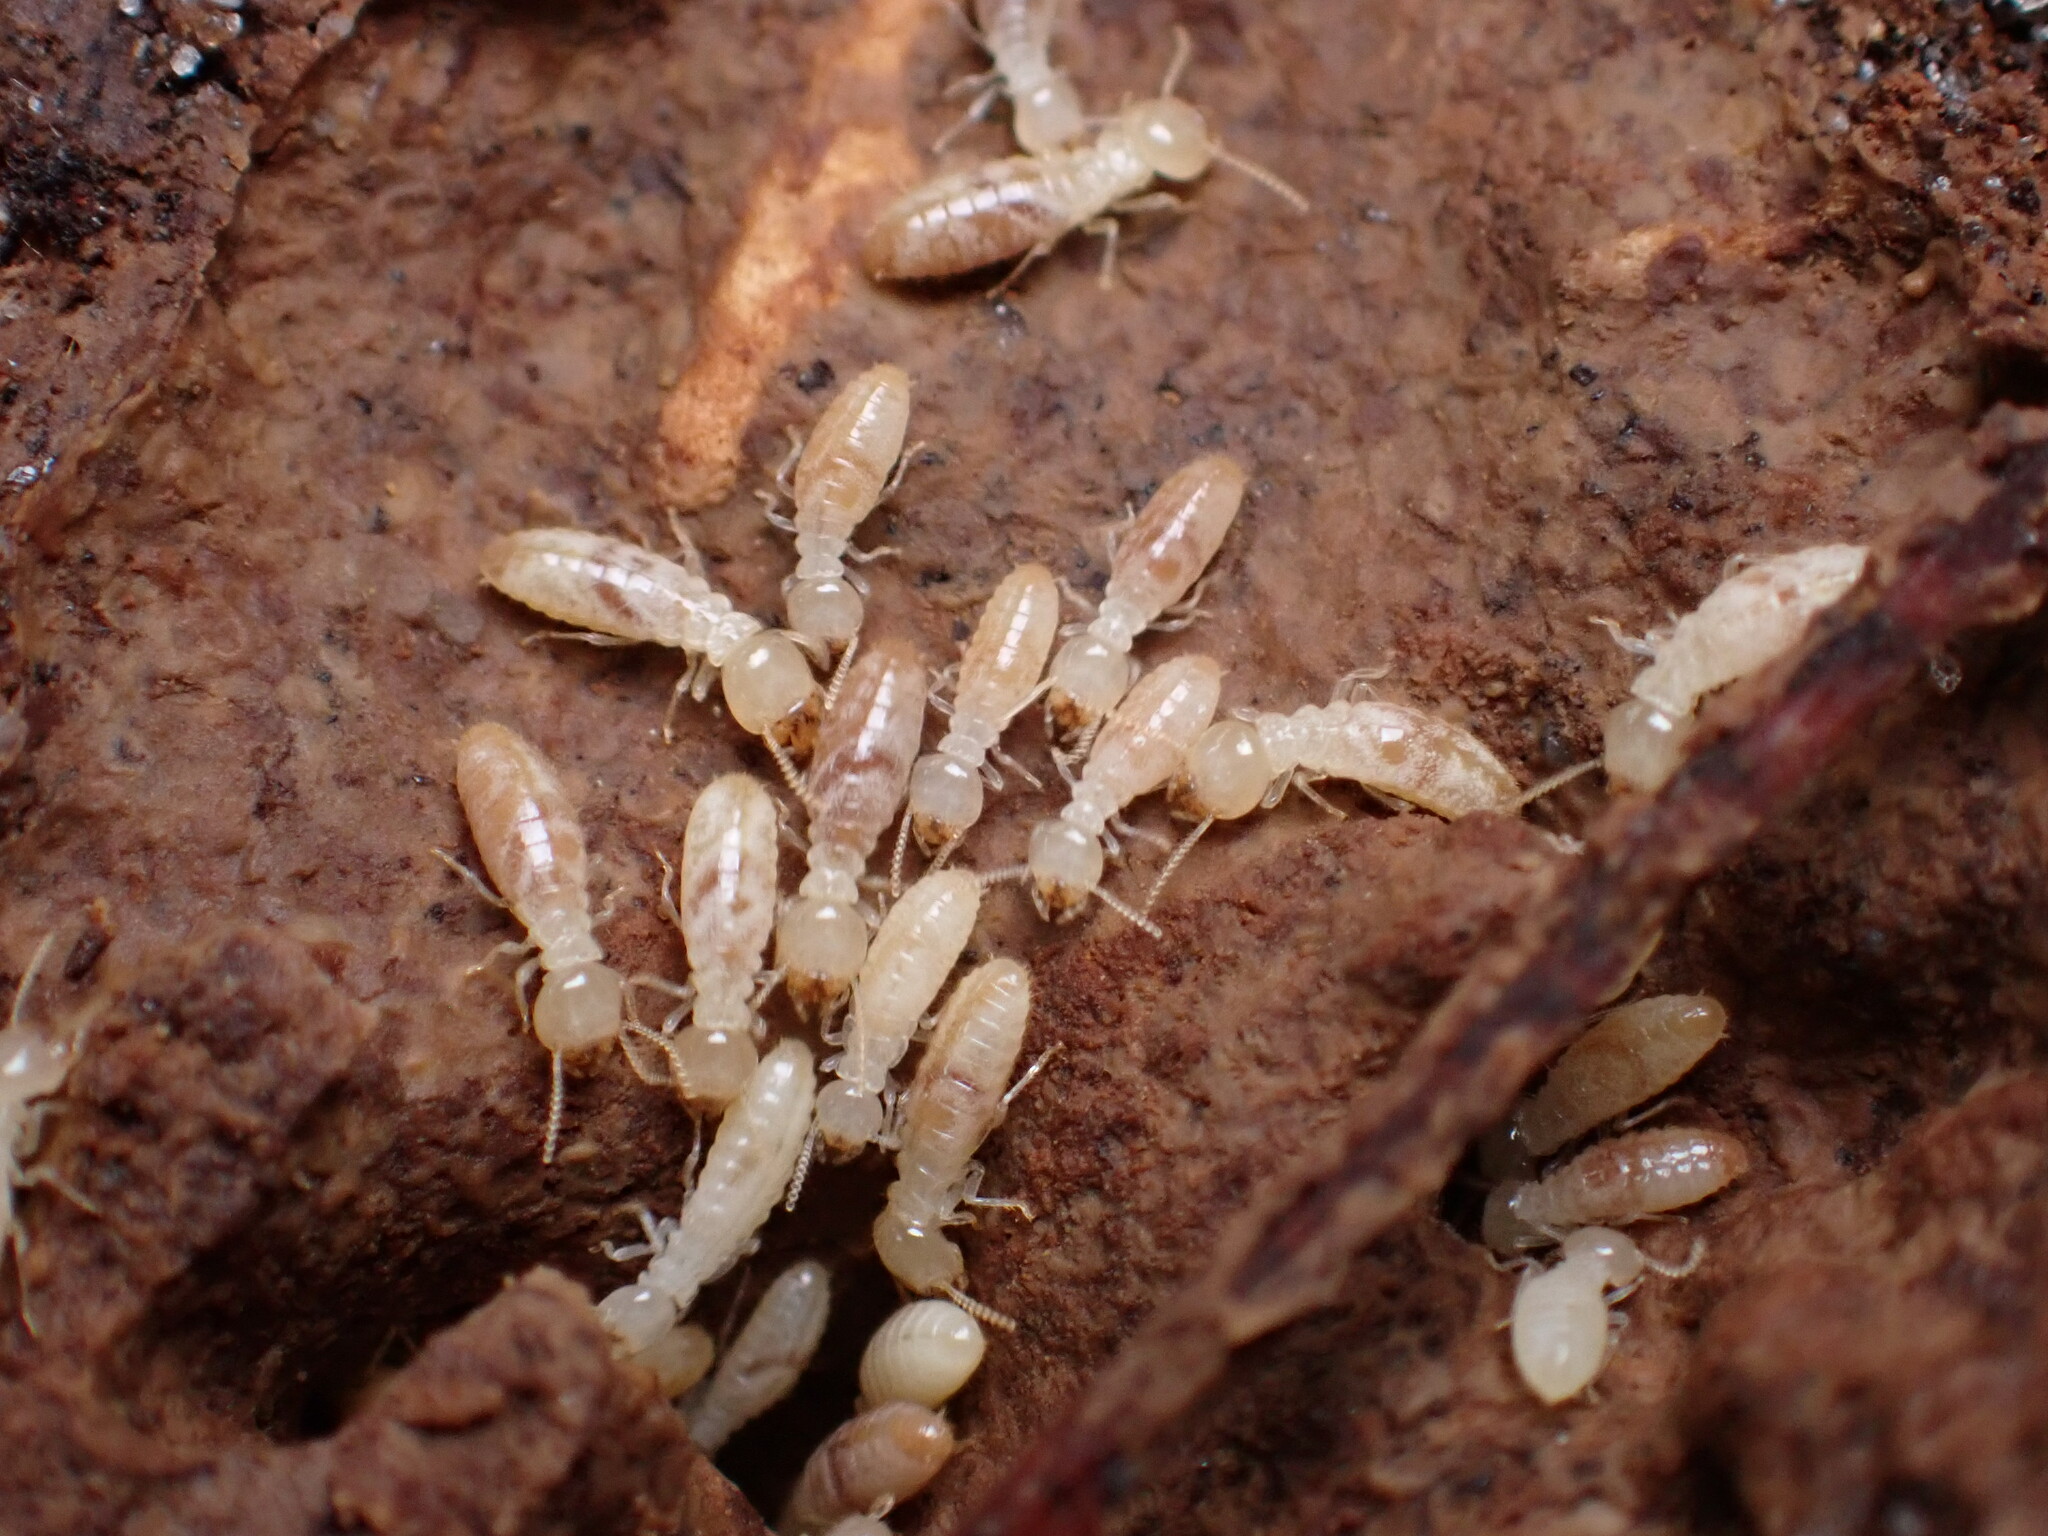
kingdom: Animalia
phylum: Arthropoda
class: Insecta
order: Blattodea
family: Rhinotermitidae
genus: Reticulitermes
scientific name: Reticulitermes flavipes
